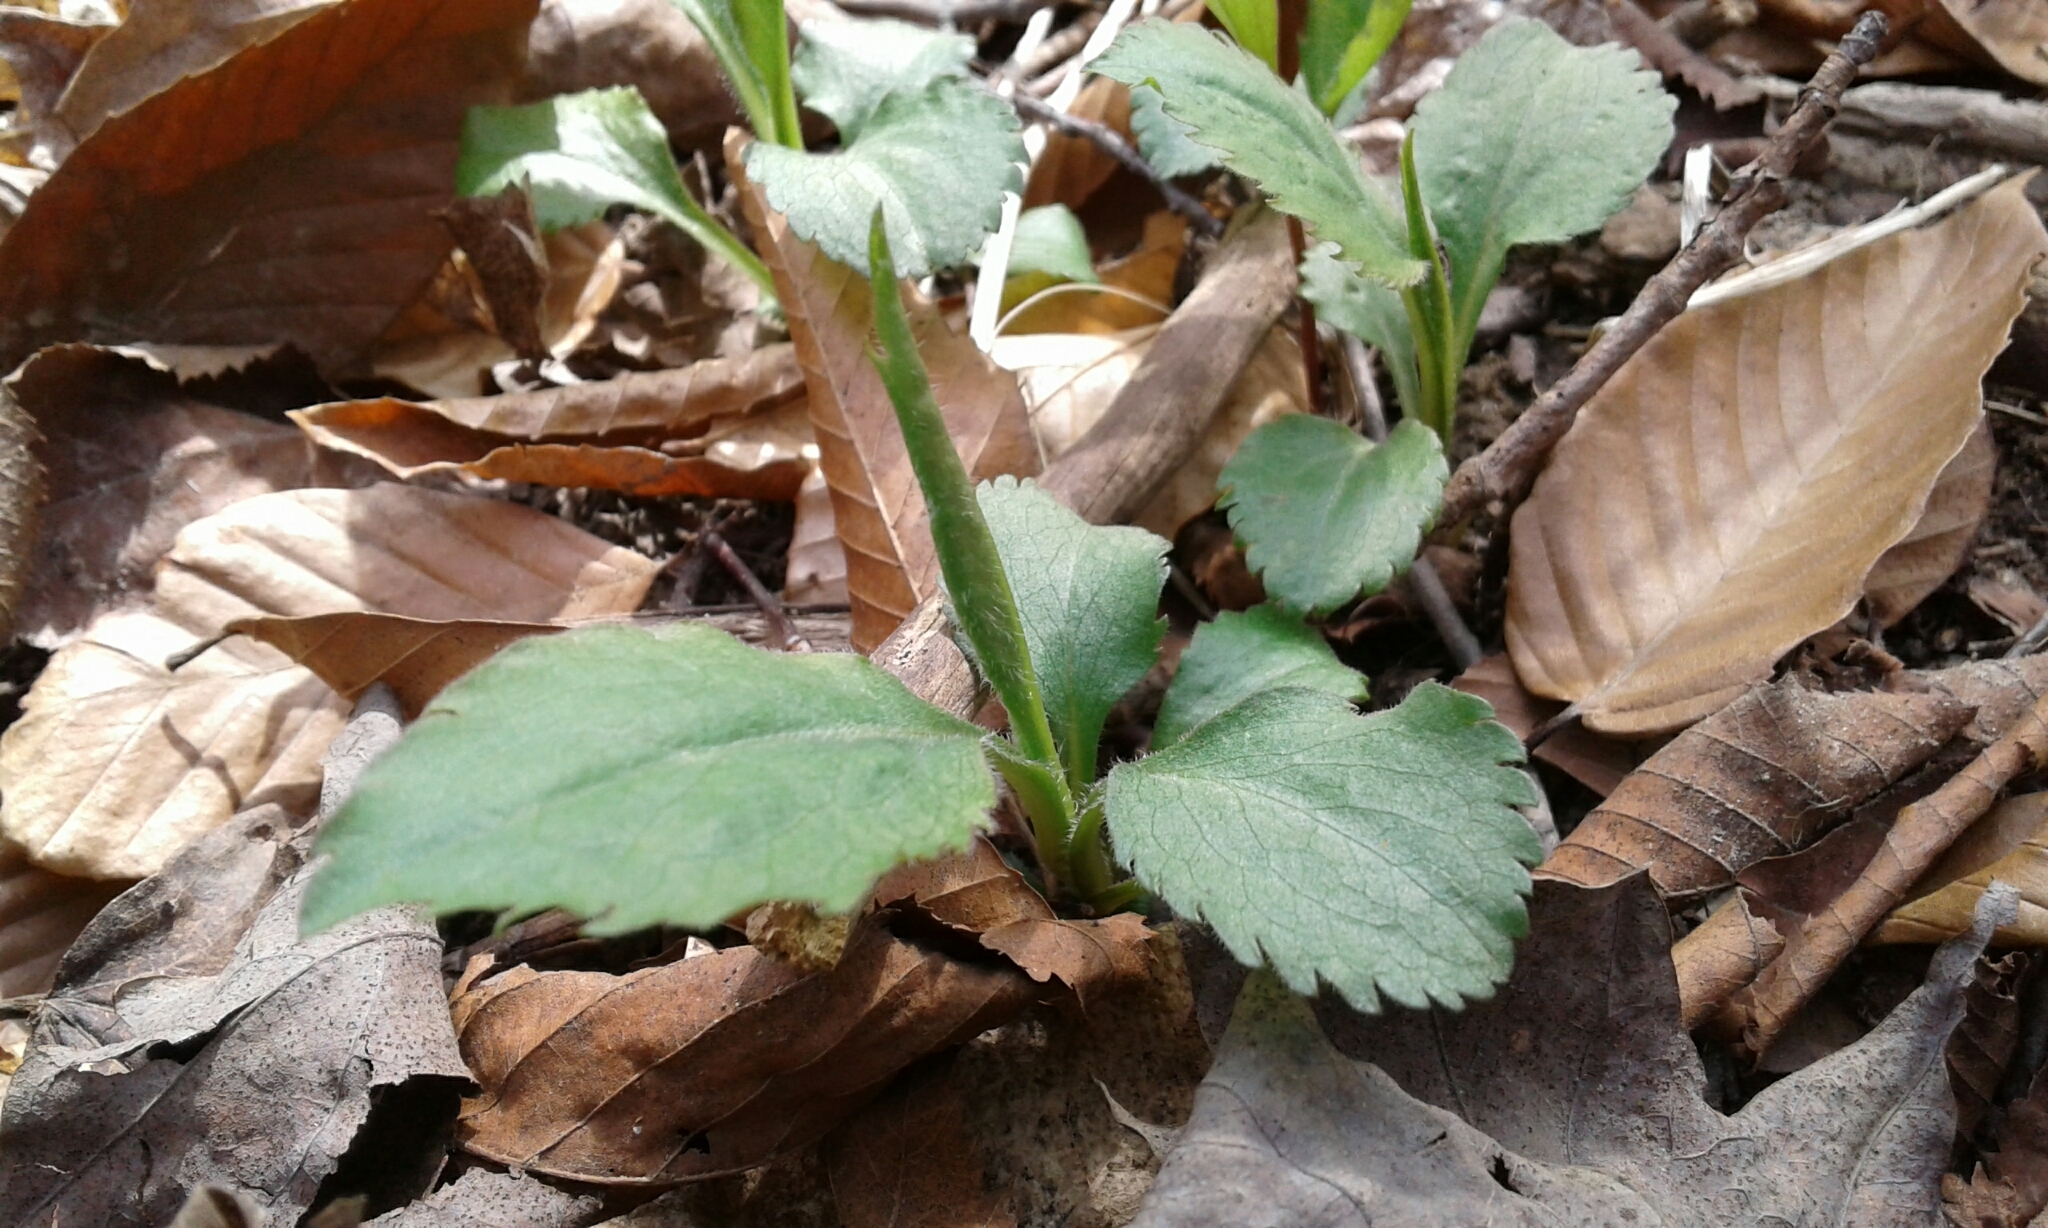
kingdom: Plantae
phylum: Tracheophyta
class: Magnoliopsida
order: Asterales
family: Asteraceae
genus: Solidago
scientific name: Solidago flexicaulis
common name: Zig-zag goldenrod
